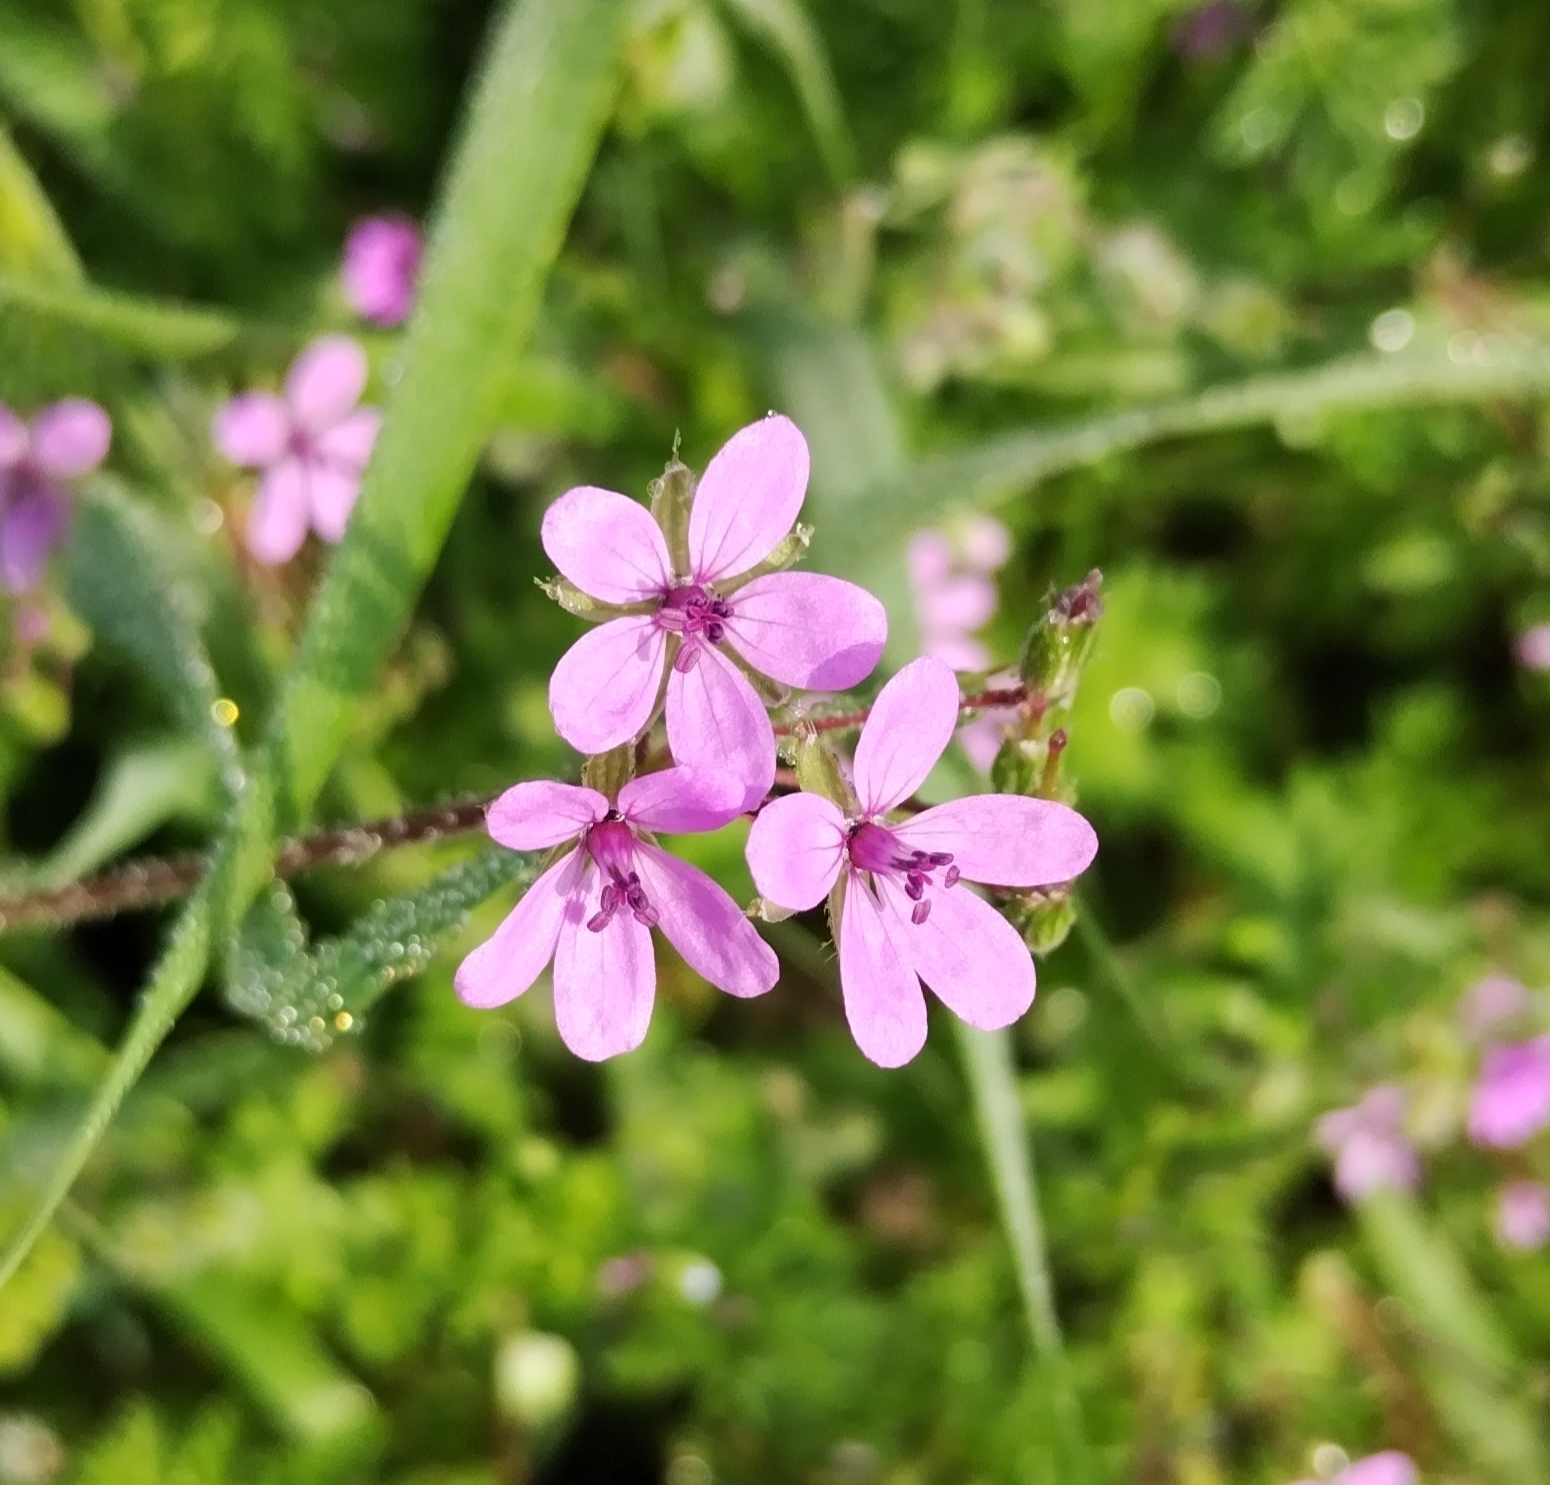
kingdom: Plantae
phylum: Tracheophyta
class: Magnoliopsida
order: Geraniales
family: Geraniaceae
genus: Erodium
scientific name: Erodium cicutarium
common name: Common stork's-bill
